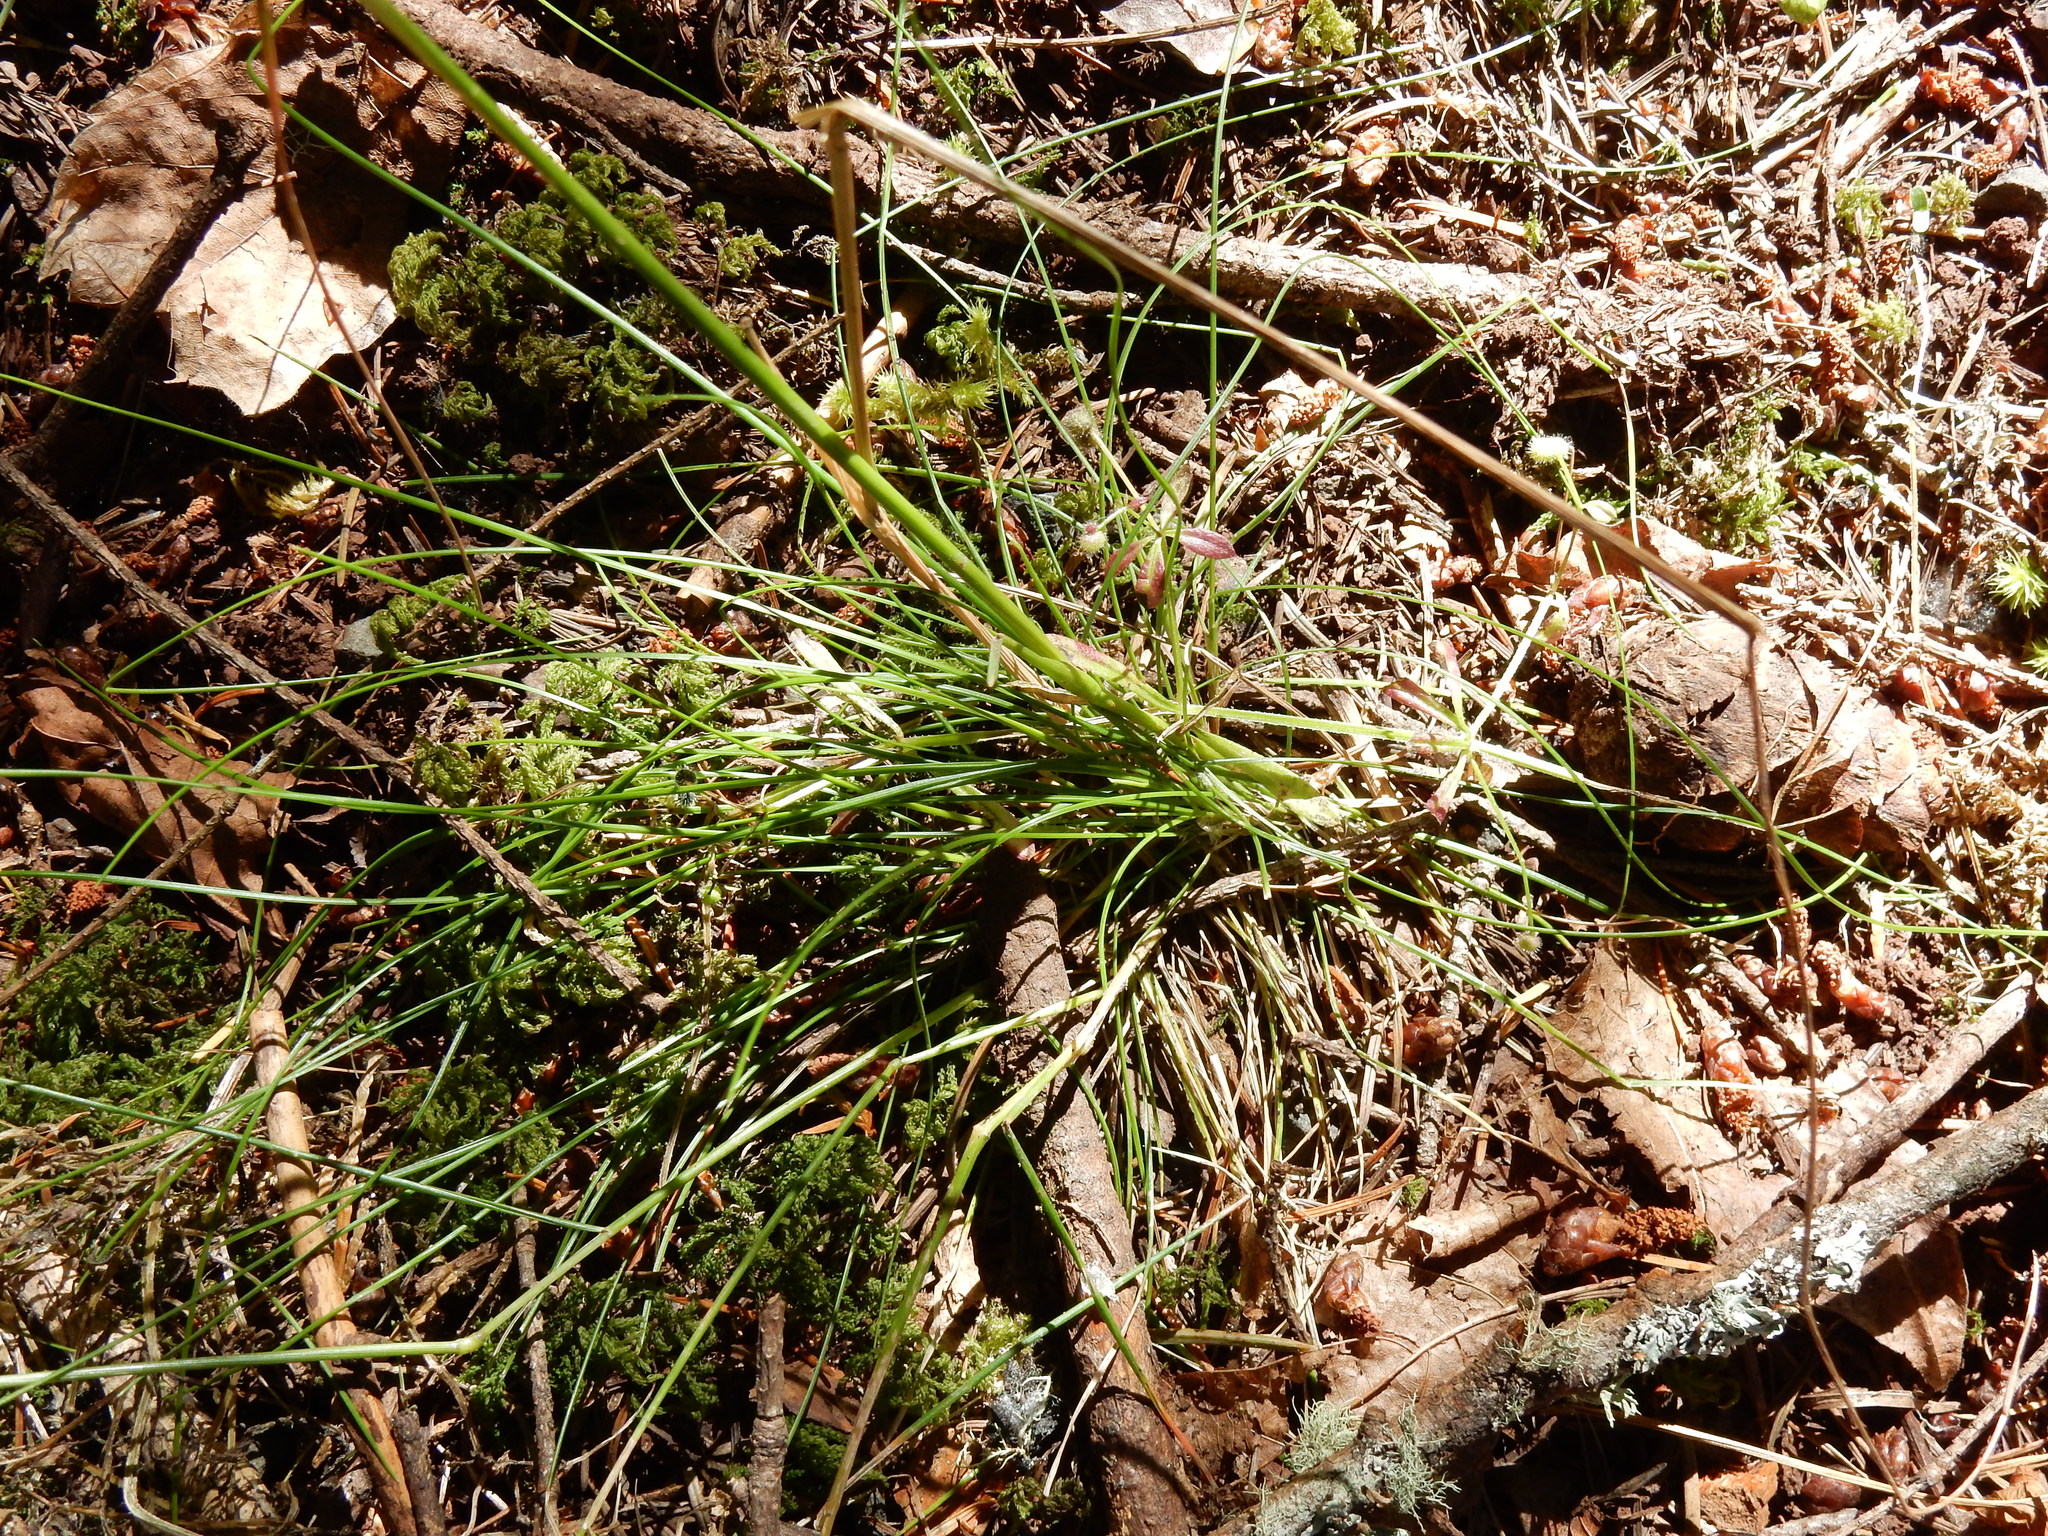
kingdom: Plantae
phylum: Tracheophyta
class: Liliopsida
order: Poales
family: Poaceae
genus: Festuca
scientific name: Festuca occidentalis
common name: Western fescue
